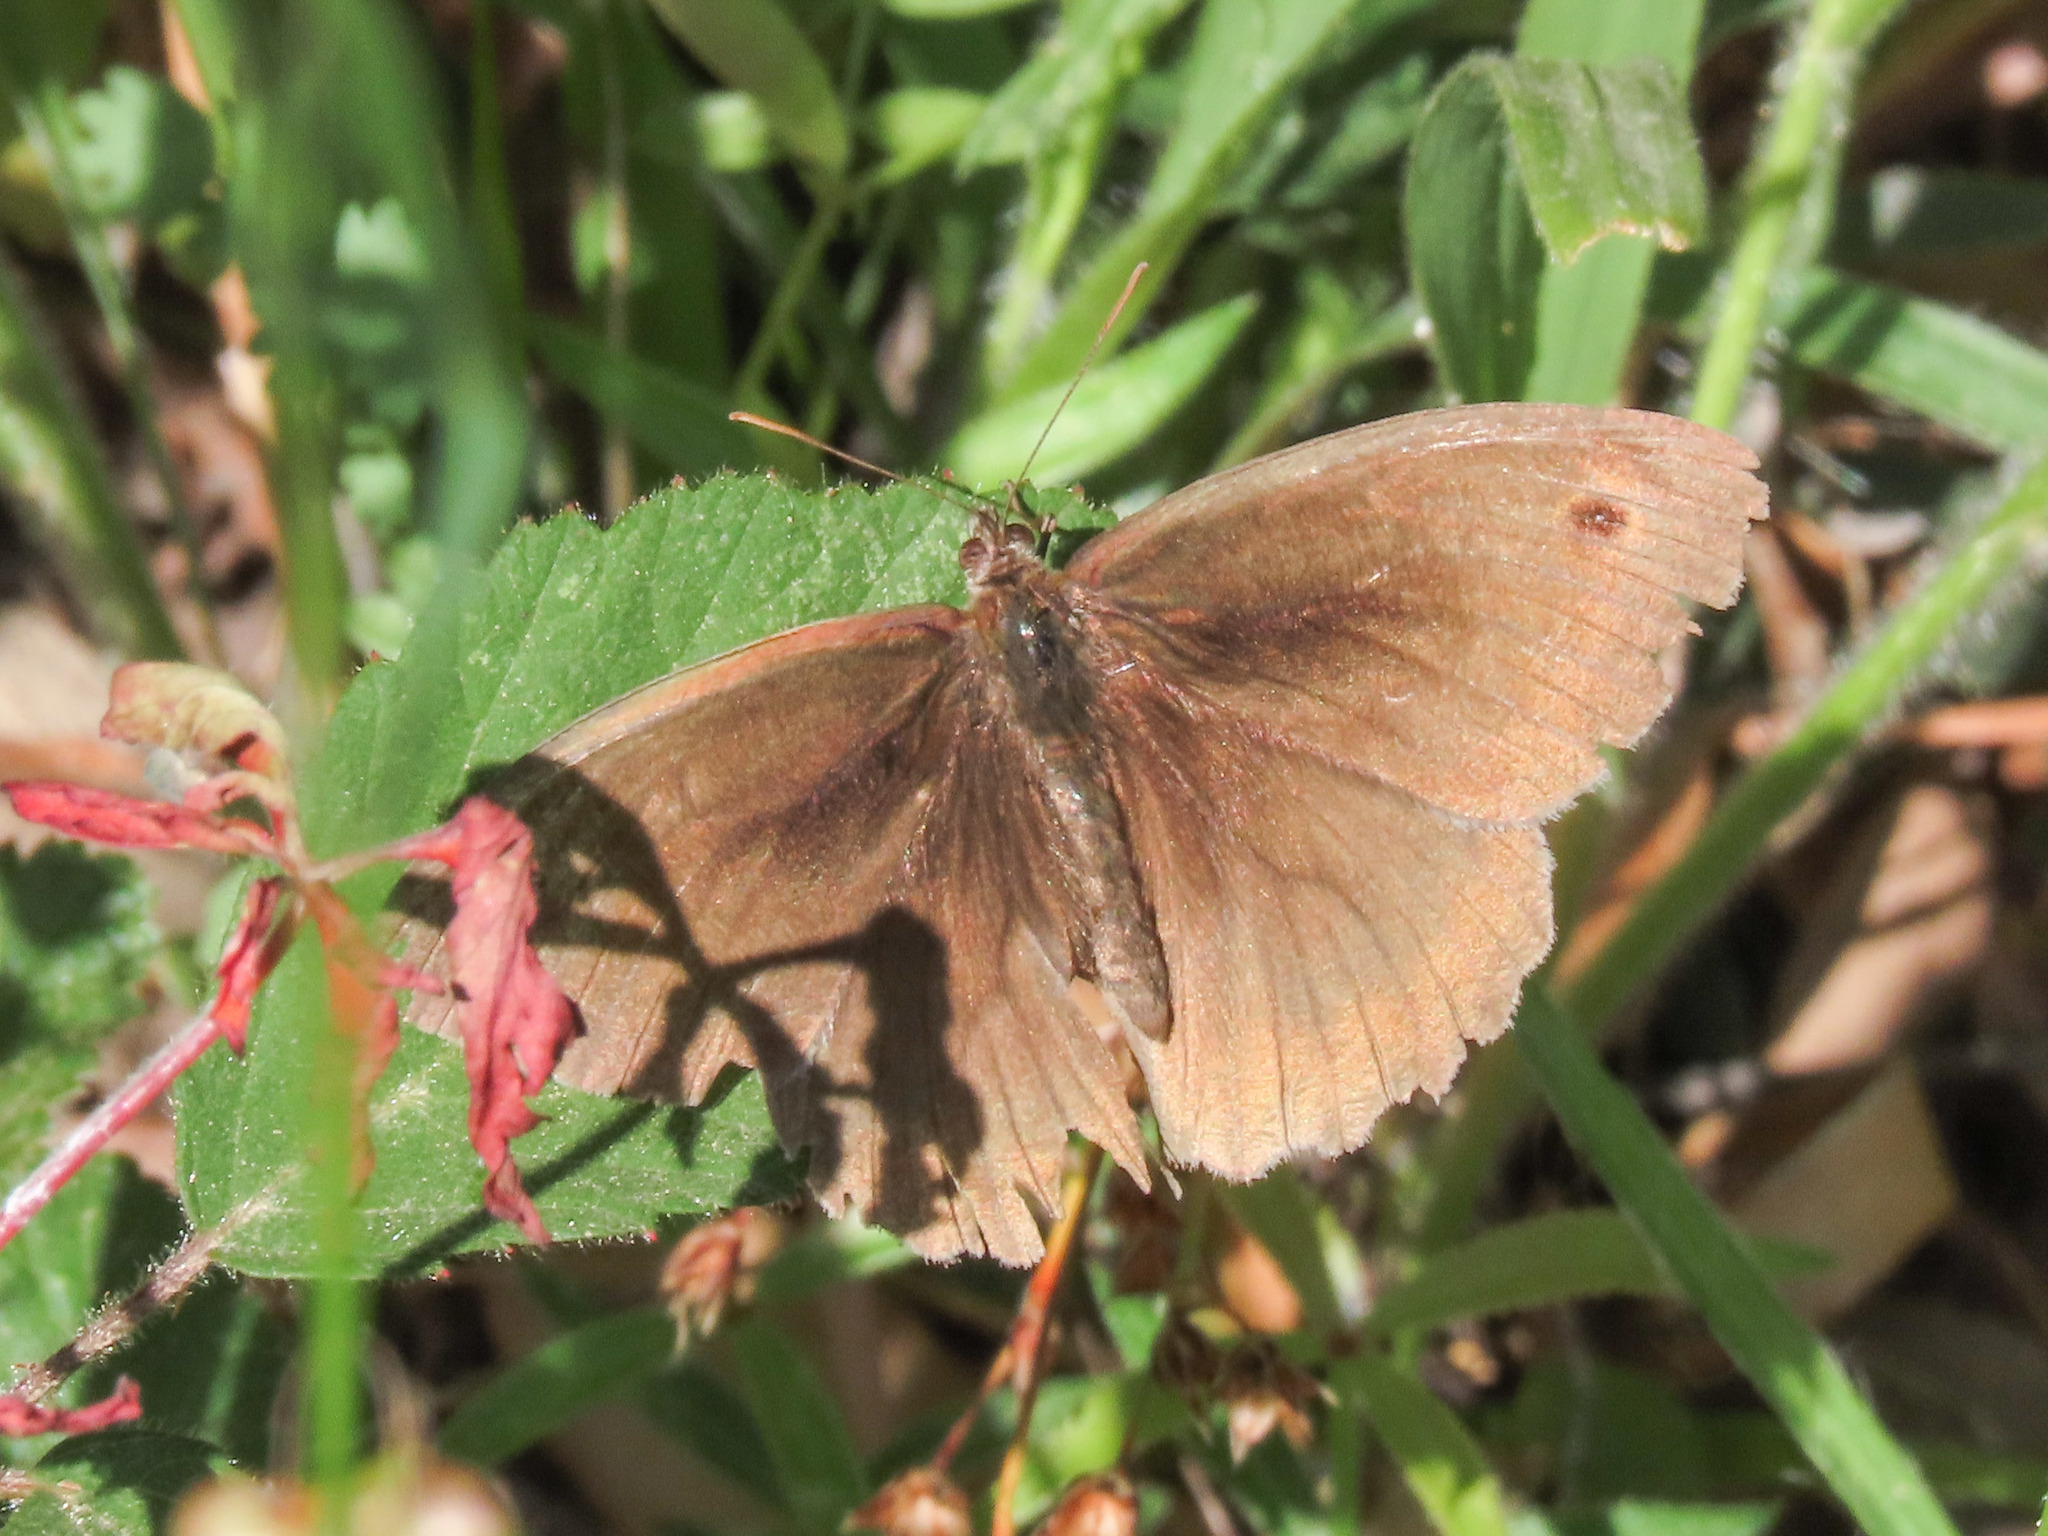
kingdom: Animalia
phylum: Arthropoda
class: Insecta
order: Lepidoptera
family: Nymphalidae
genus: Maniola
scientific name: Maniola jurtina
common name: Meadow brown
